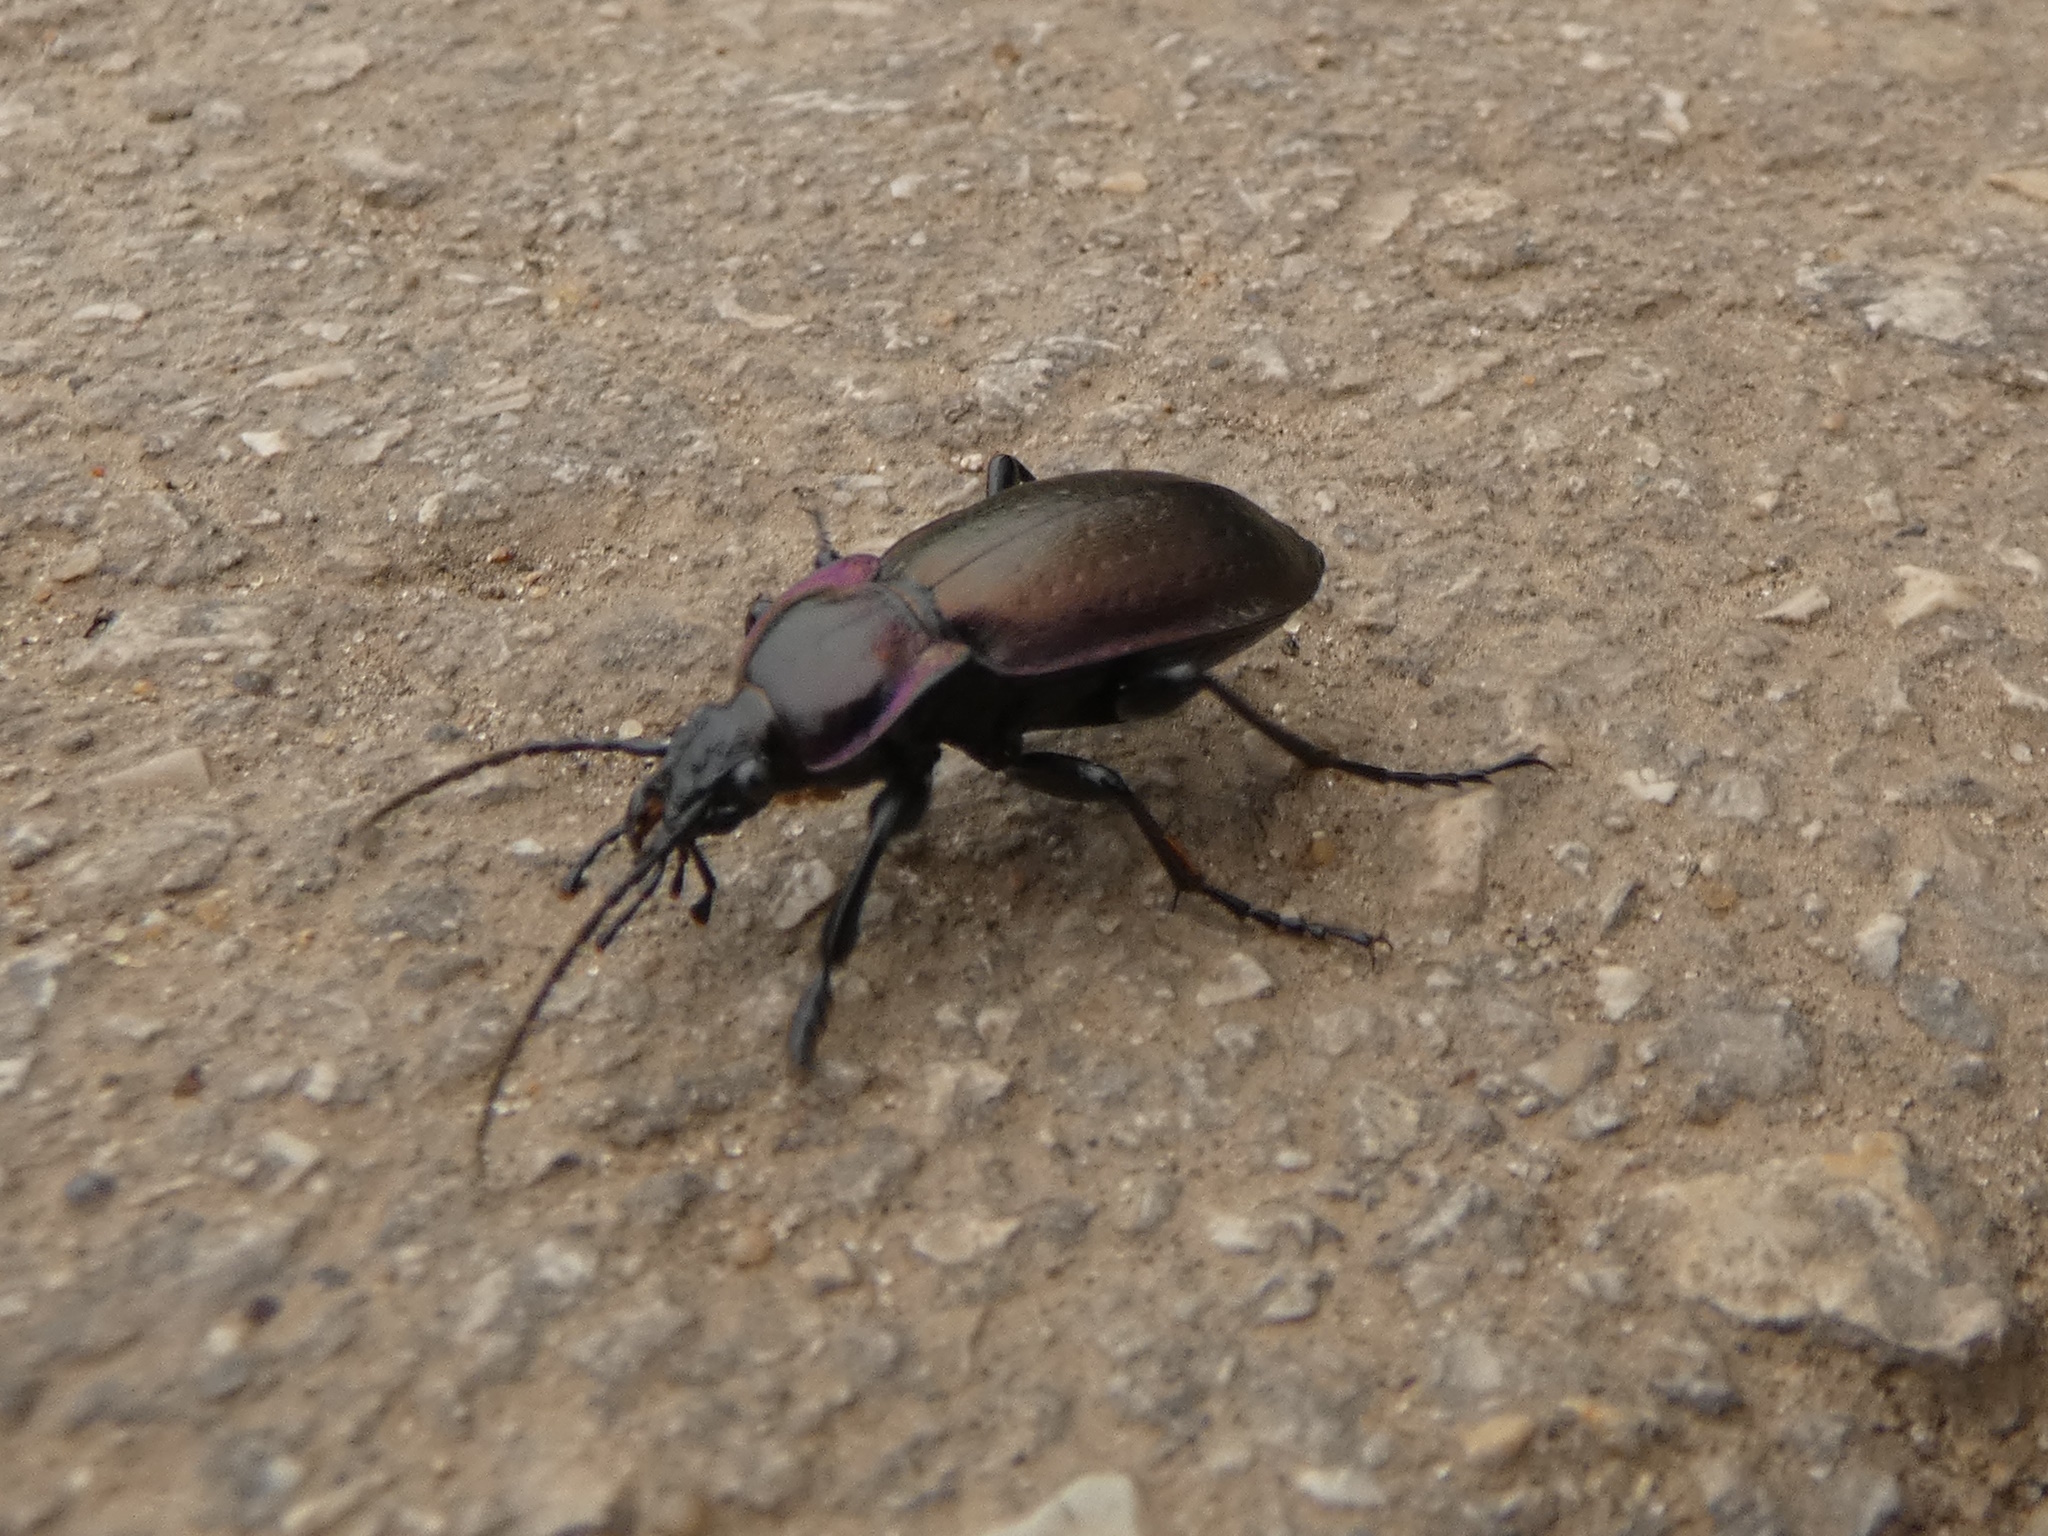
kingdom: Animalia
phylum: Arthropoda
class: Insecta
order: Coleoptera
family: Carabidae
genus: Carabus
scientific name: Carabus nemoralis
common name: European ground beetle
